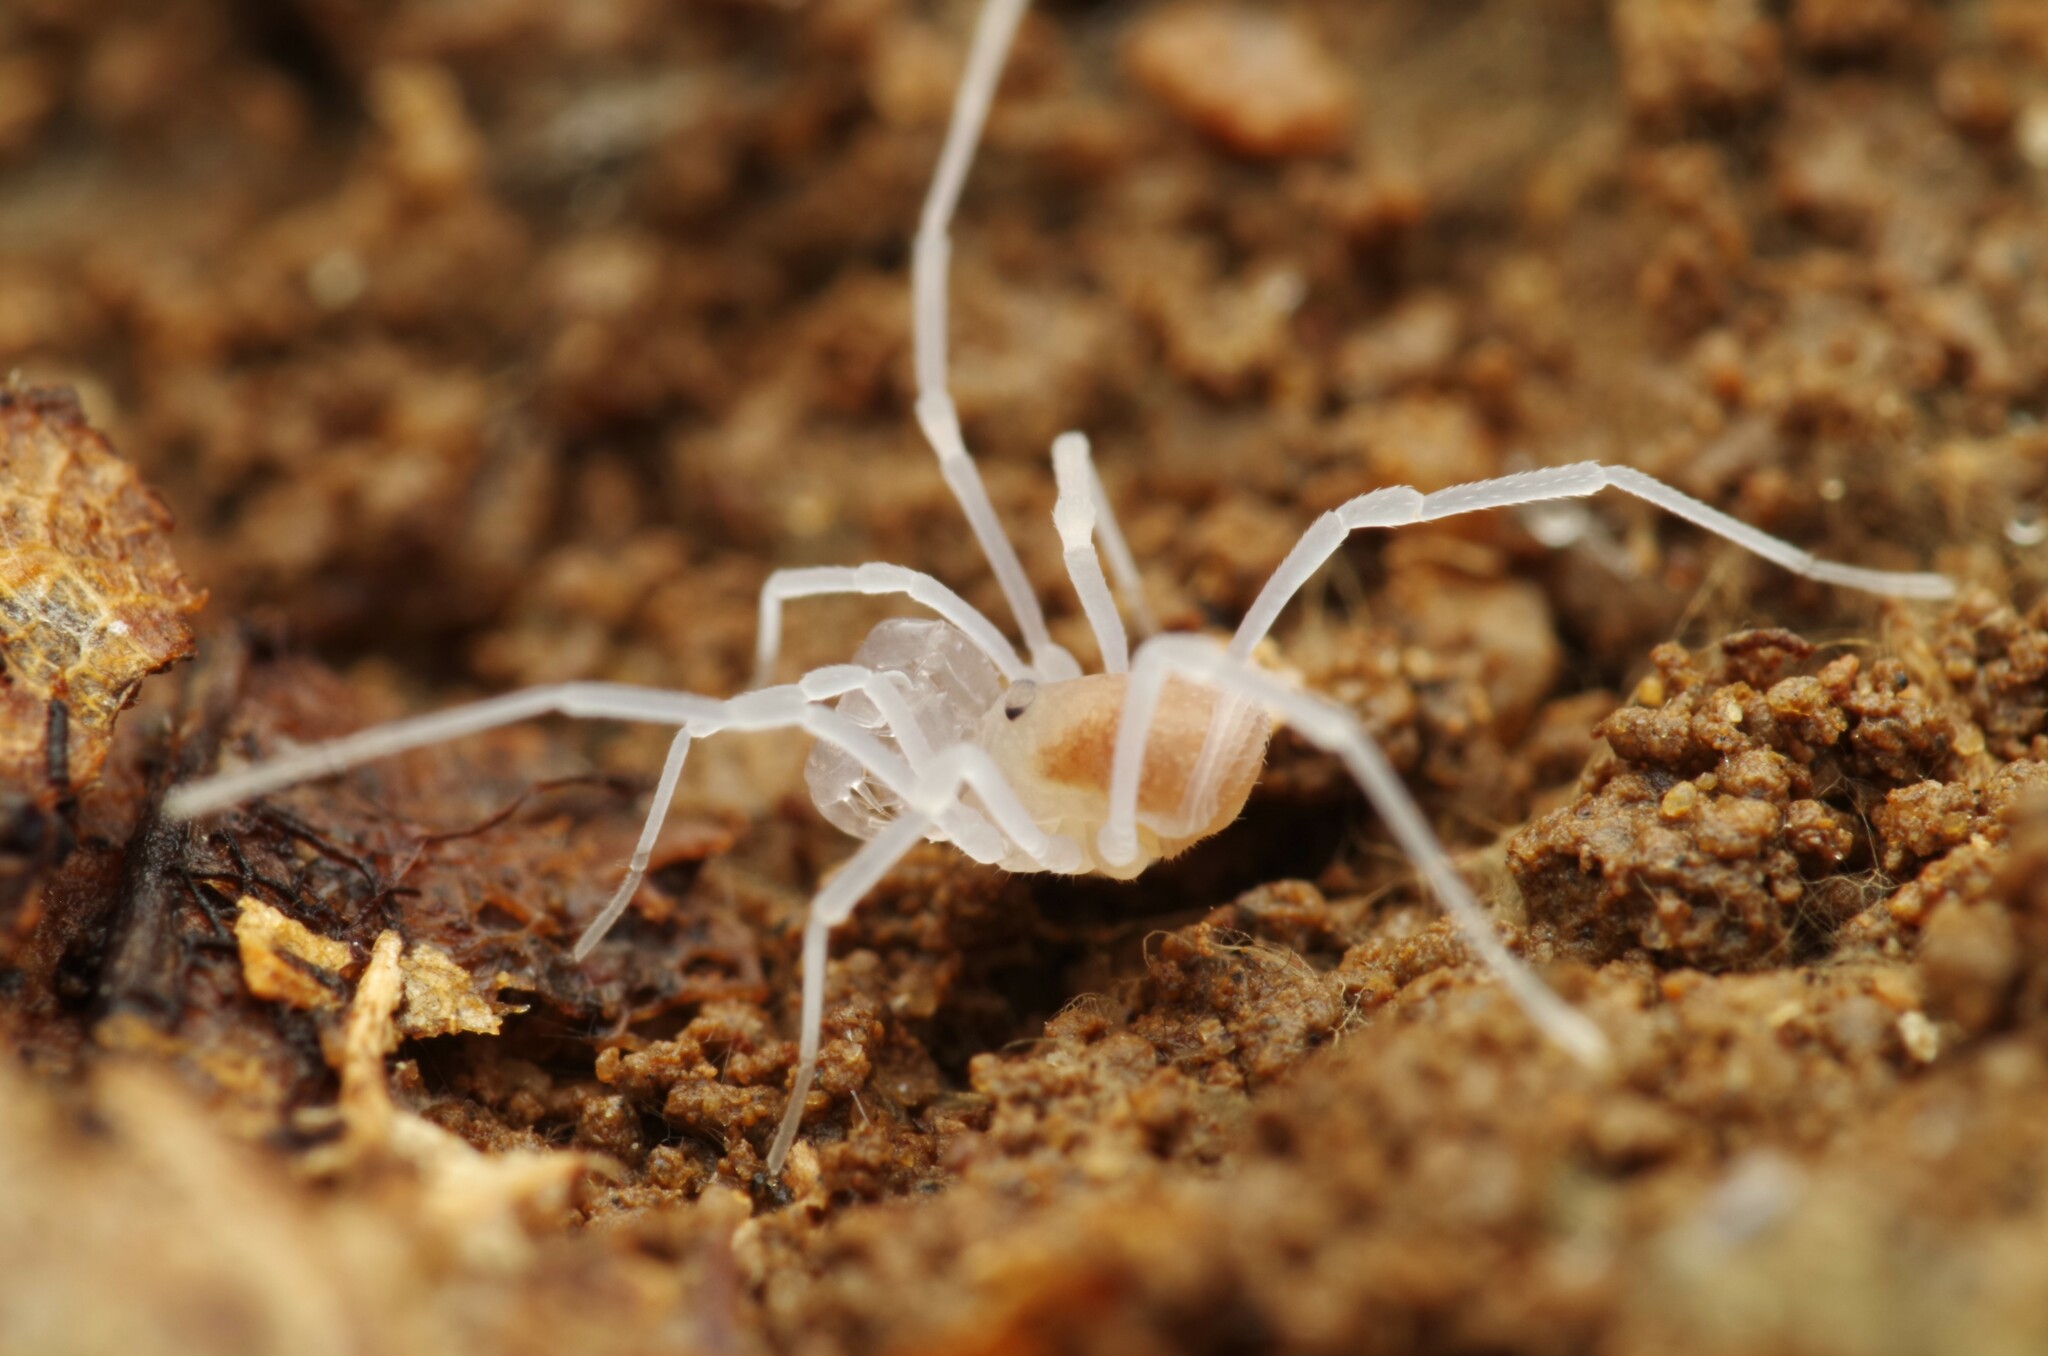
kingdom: Animalia
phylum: Arthropoda
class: Arachnida
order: Opiliones
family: Cladonychiidae
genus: Holoscotolemon
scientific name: Holoscotolemon querilhaci
